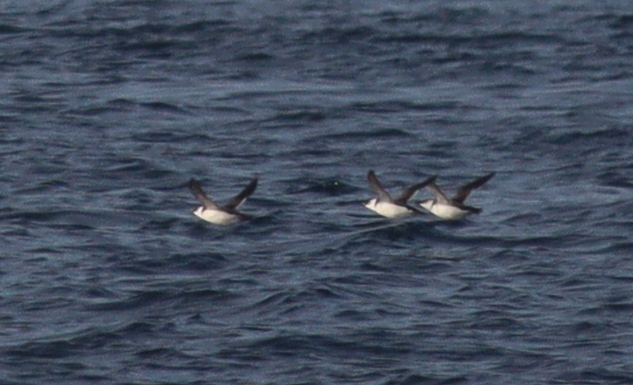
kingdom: Animalia
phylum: Chordata
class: Aves
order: Charadriiformes
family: Alcidae
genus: Alca
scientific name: Alca torda
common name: Razorbill
